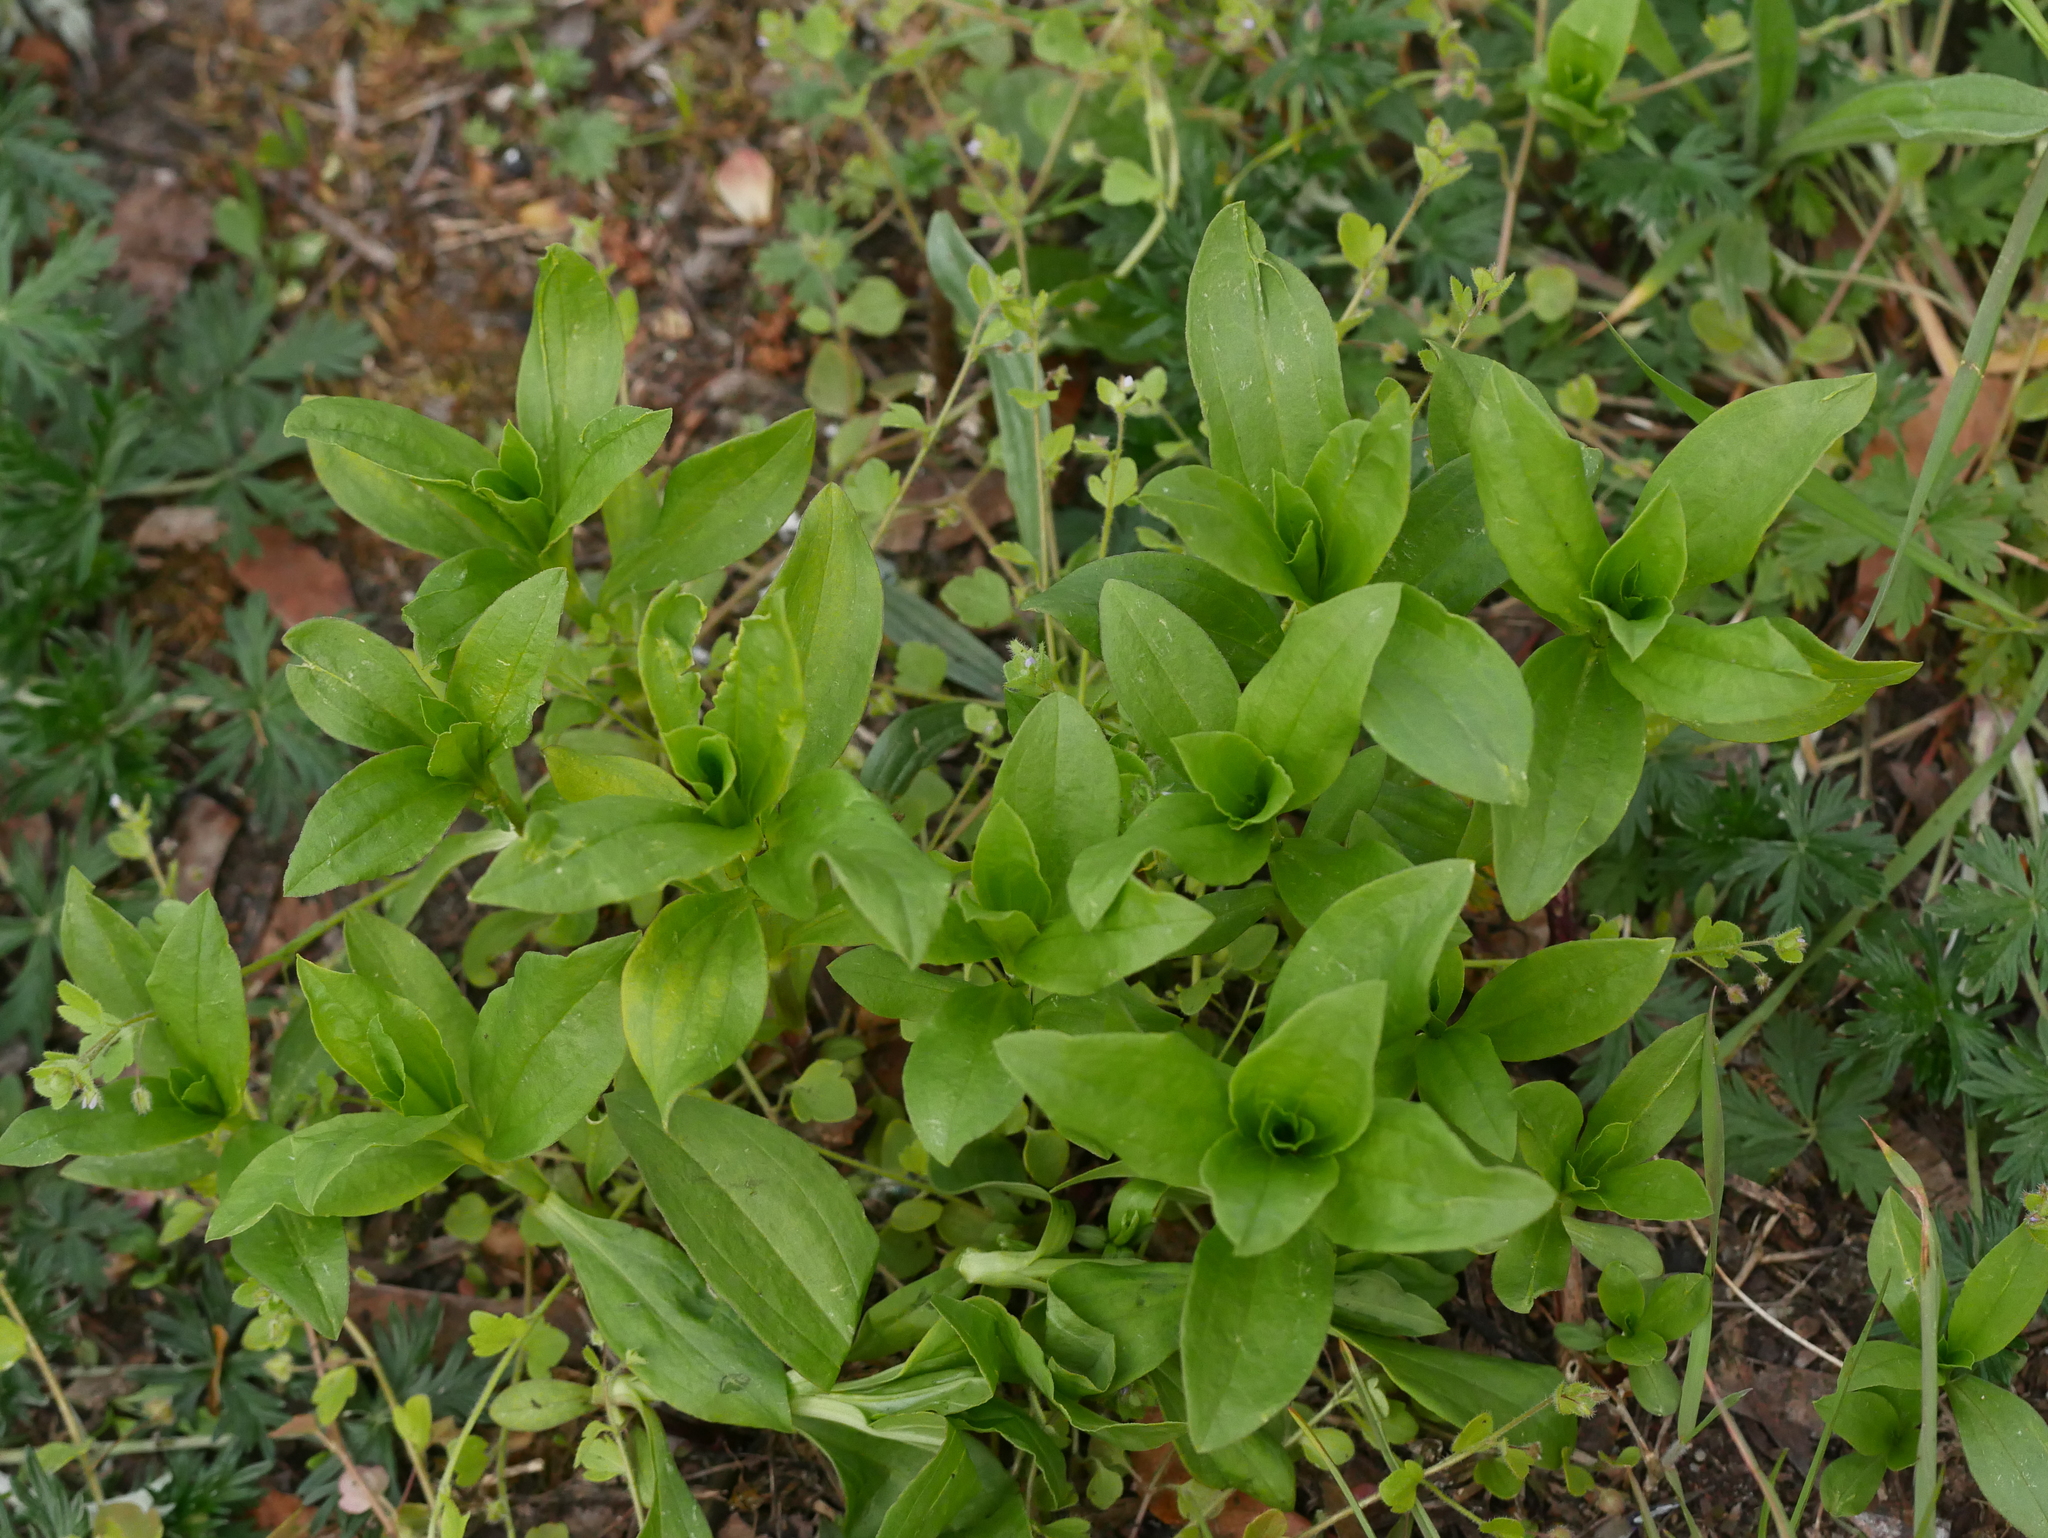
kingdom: Plantae
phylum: Tracheophyta
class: Magnoliopsida
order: Caryophyllales
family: Caryophyllaceae
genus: Saponaria
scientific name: Saponaria officinalis
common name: Soapwort
